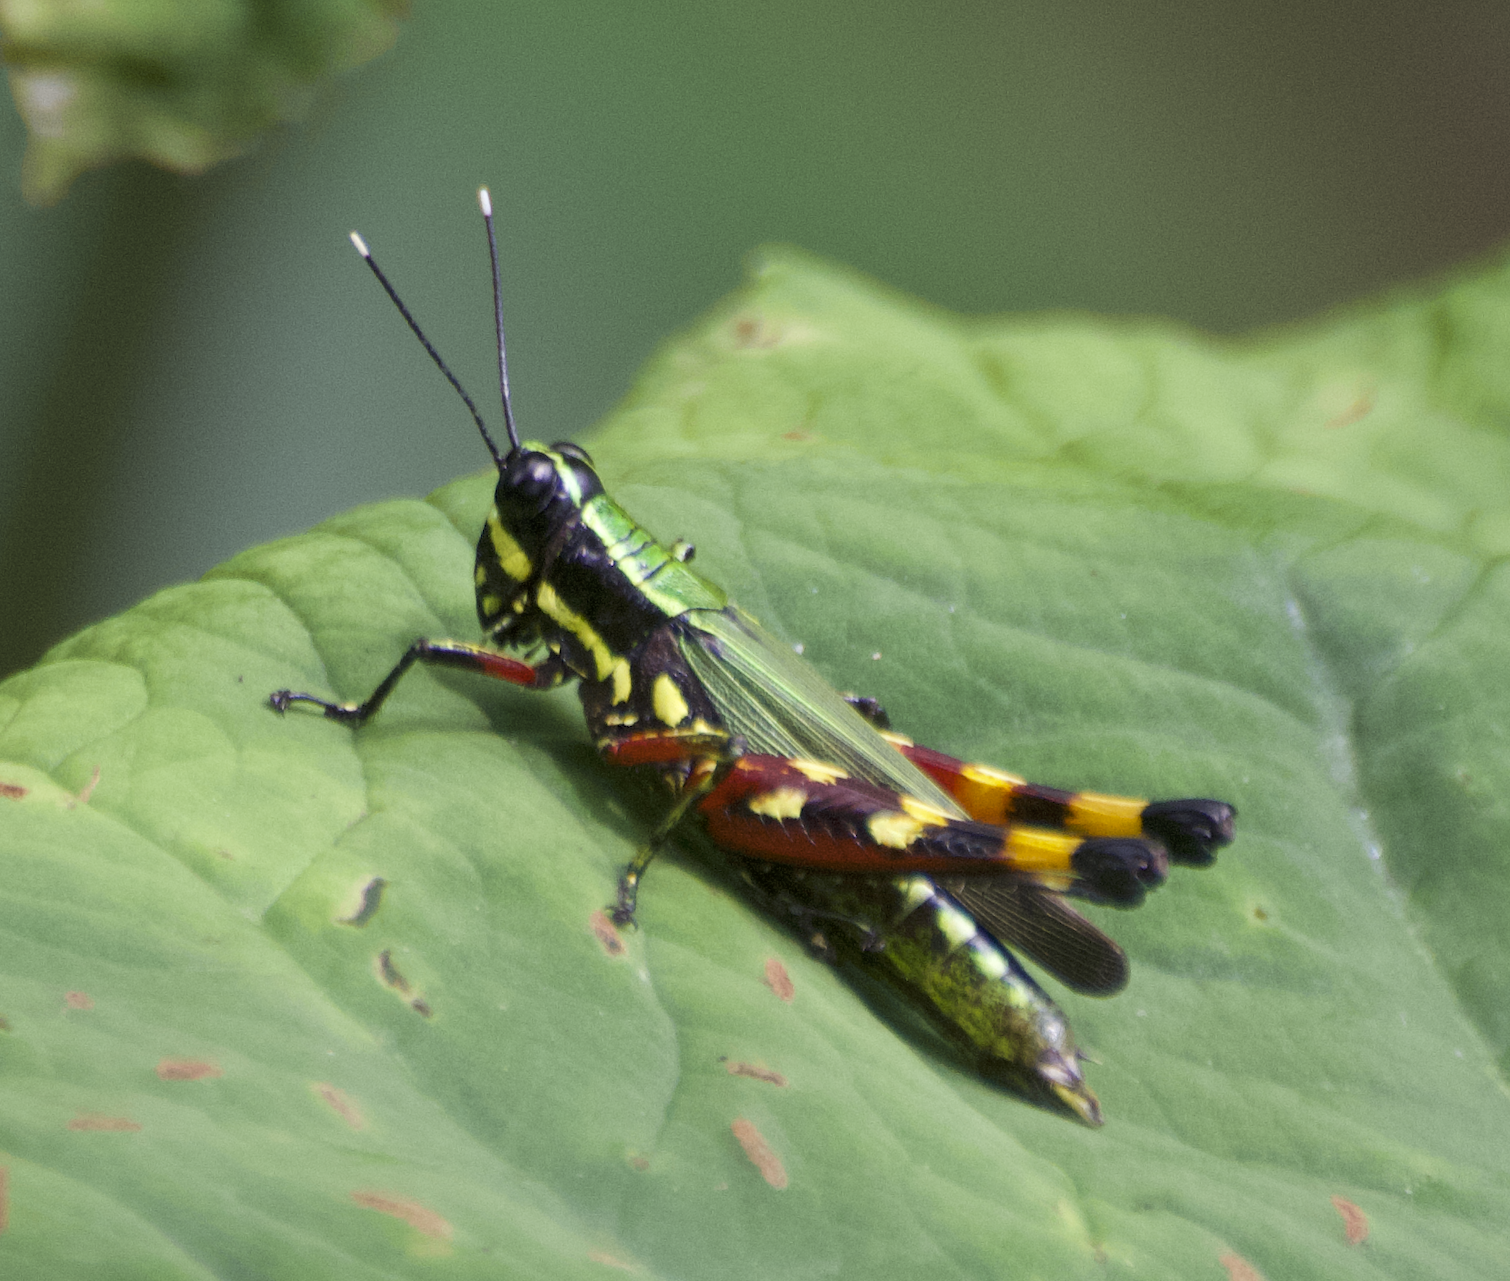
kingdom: Animalia
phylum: Arthropoda
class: Insecta
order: Orthoptera
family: Acrididae
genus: Tetrataenia
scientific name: Tetrataenia surinama
